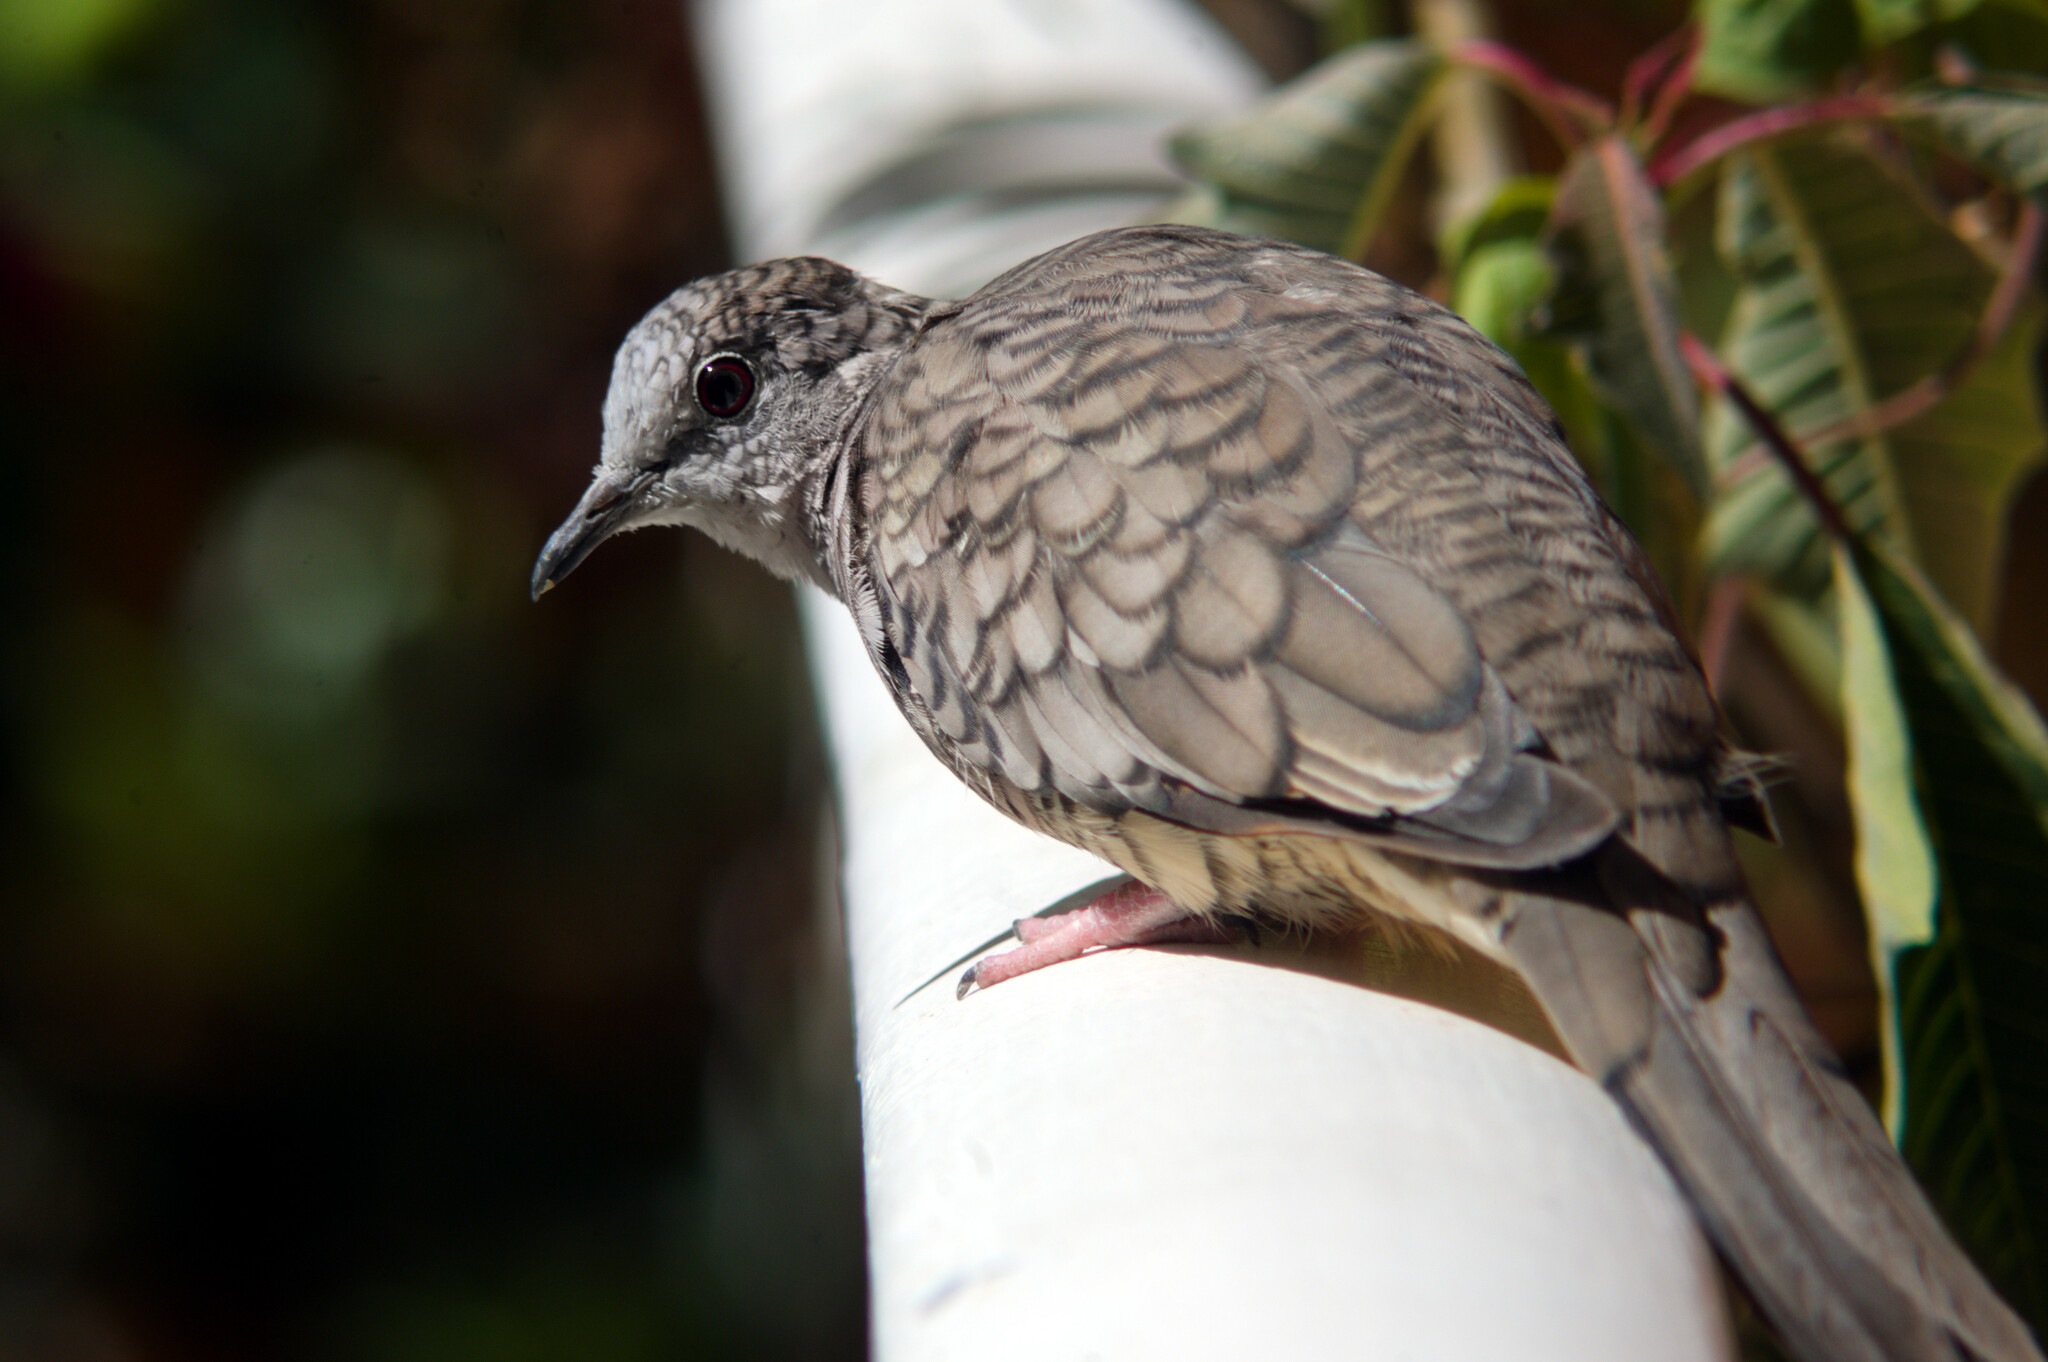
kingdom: Animalia
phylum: Chordata
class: Aves
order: Columbiformes
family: Columbidae
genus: Columbina
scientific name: Columbina inca
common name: Inca dove
